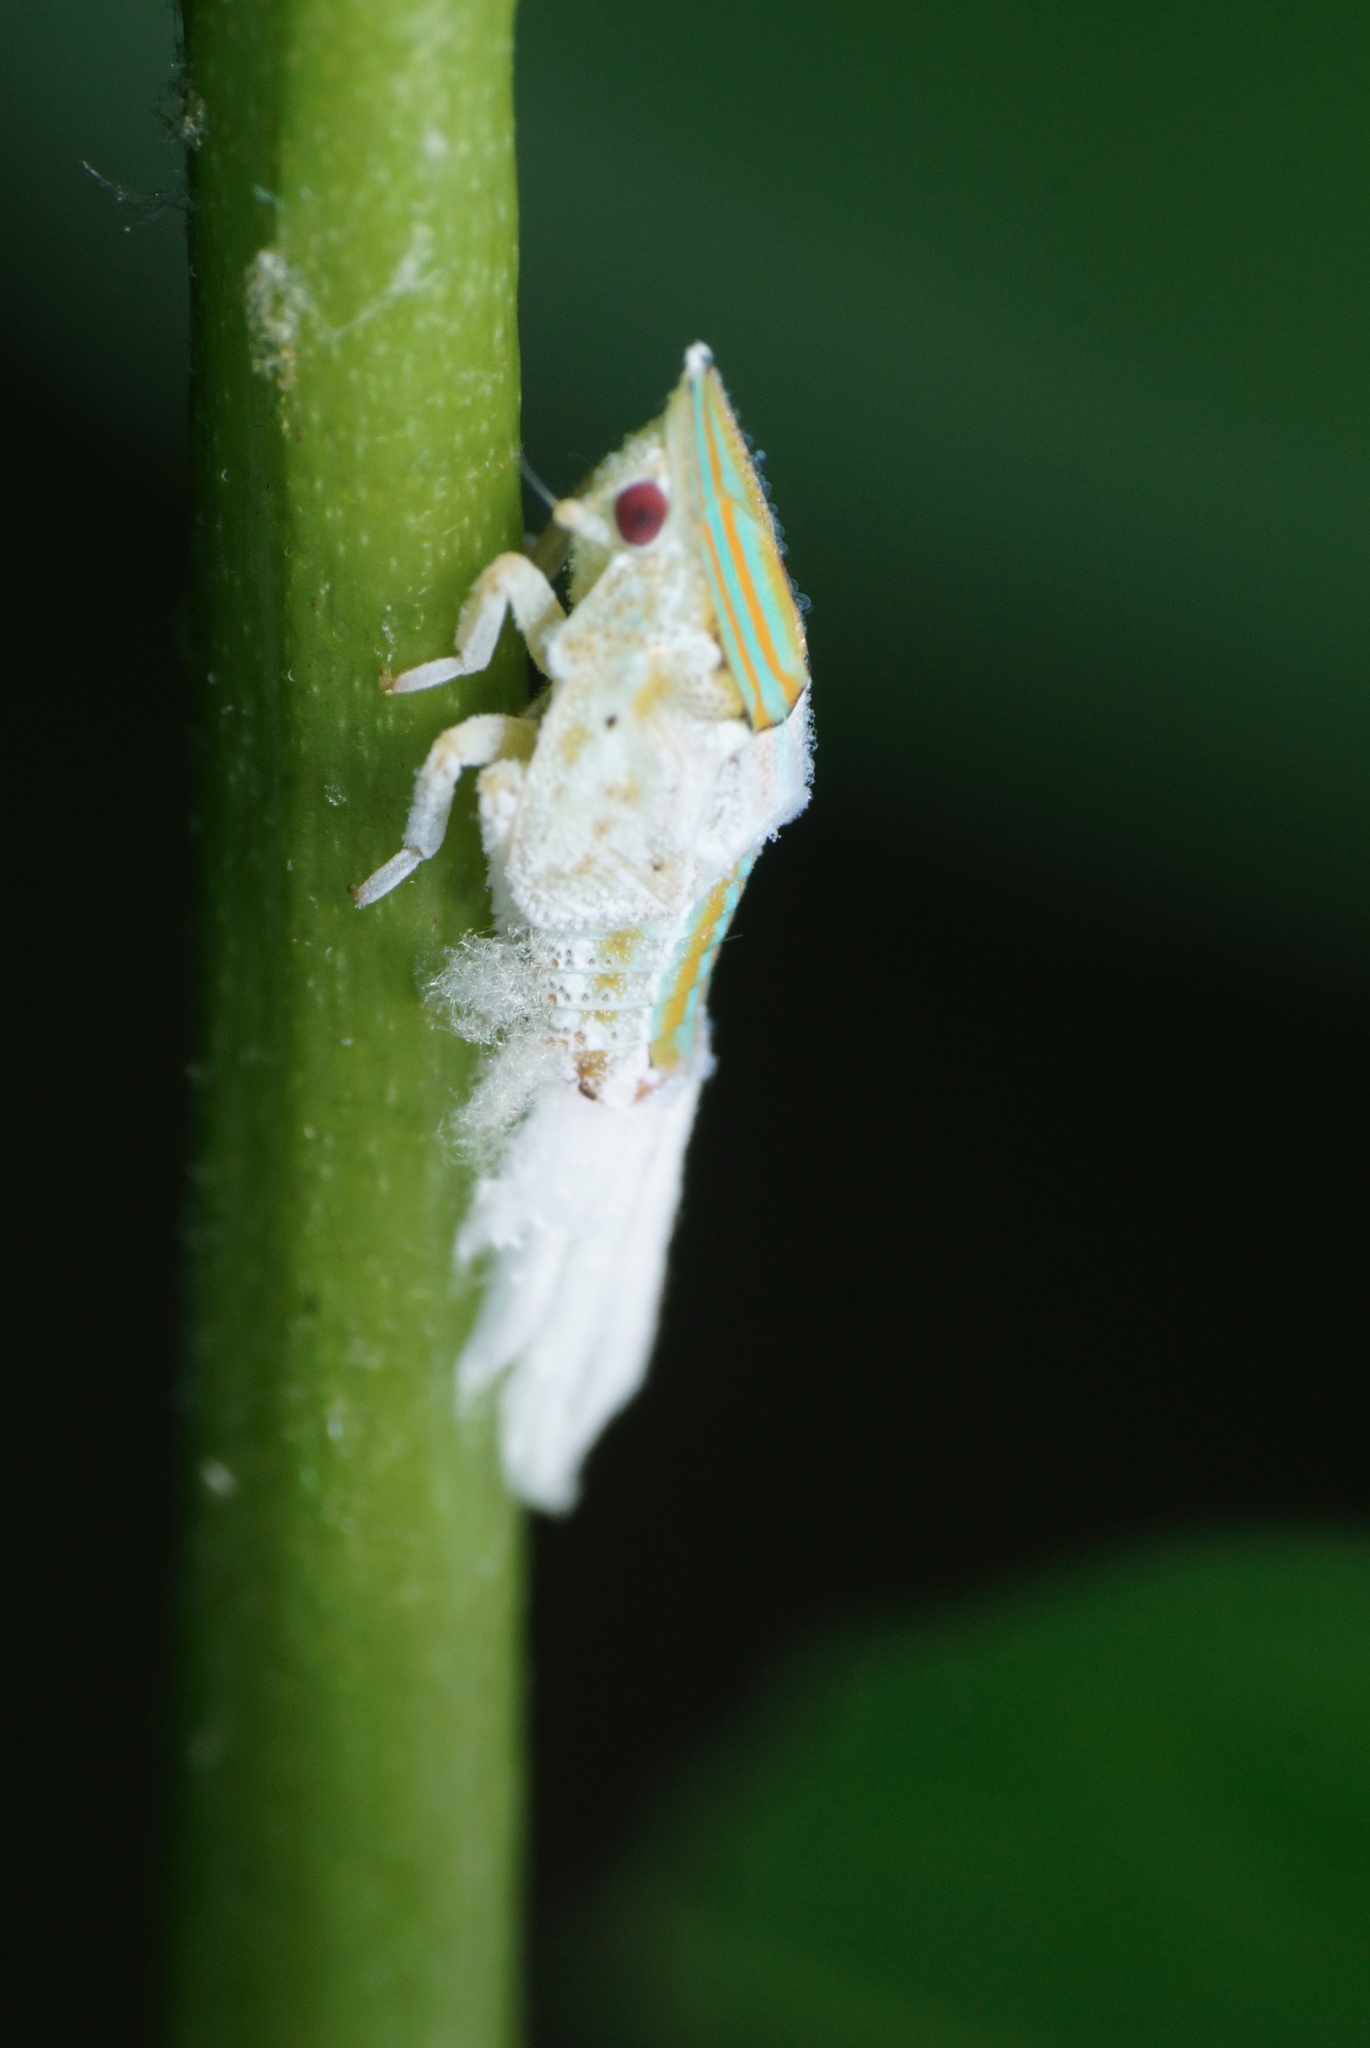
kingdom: Animalia
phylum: Arthropoda
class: Insecta
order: Hemiptera
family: Flatidae
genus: Salurnis
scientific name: Salurnis marginella
